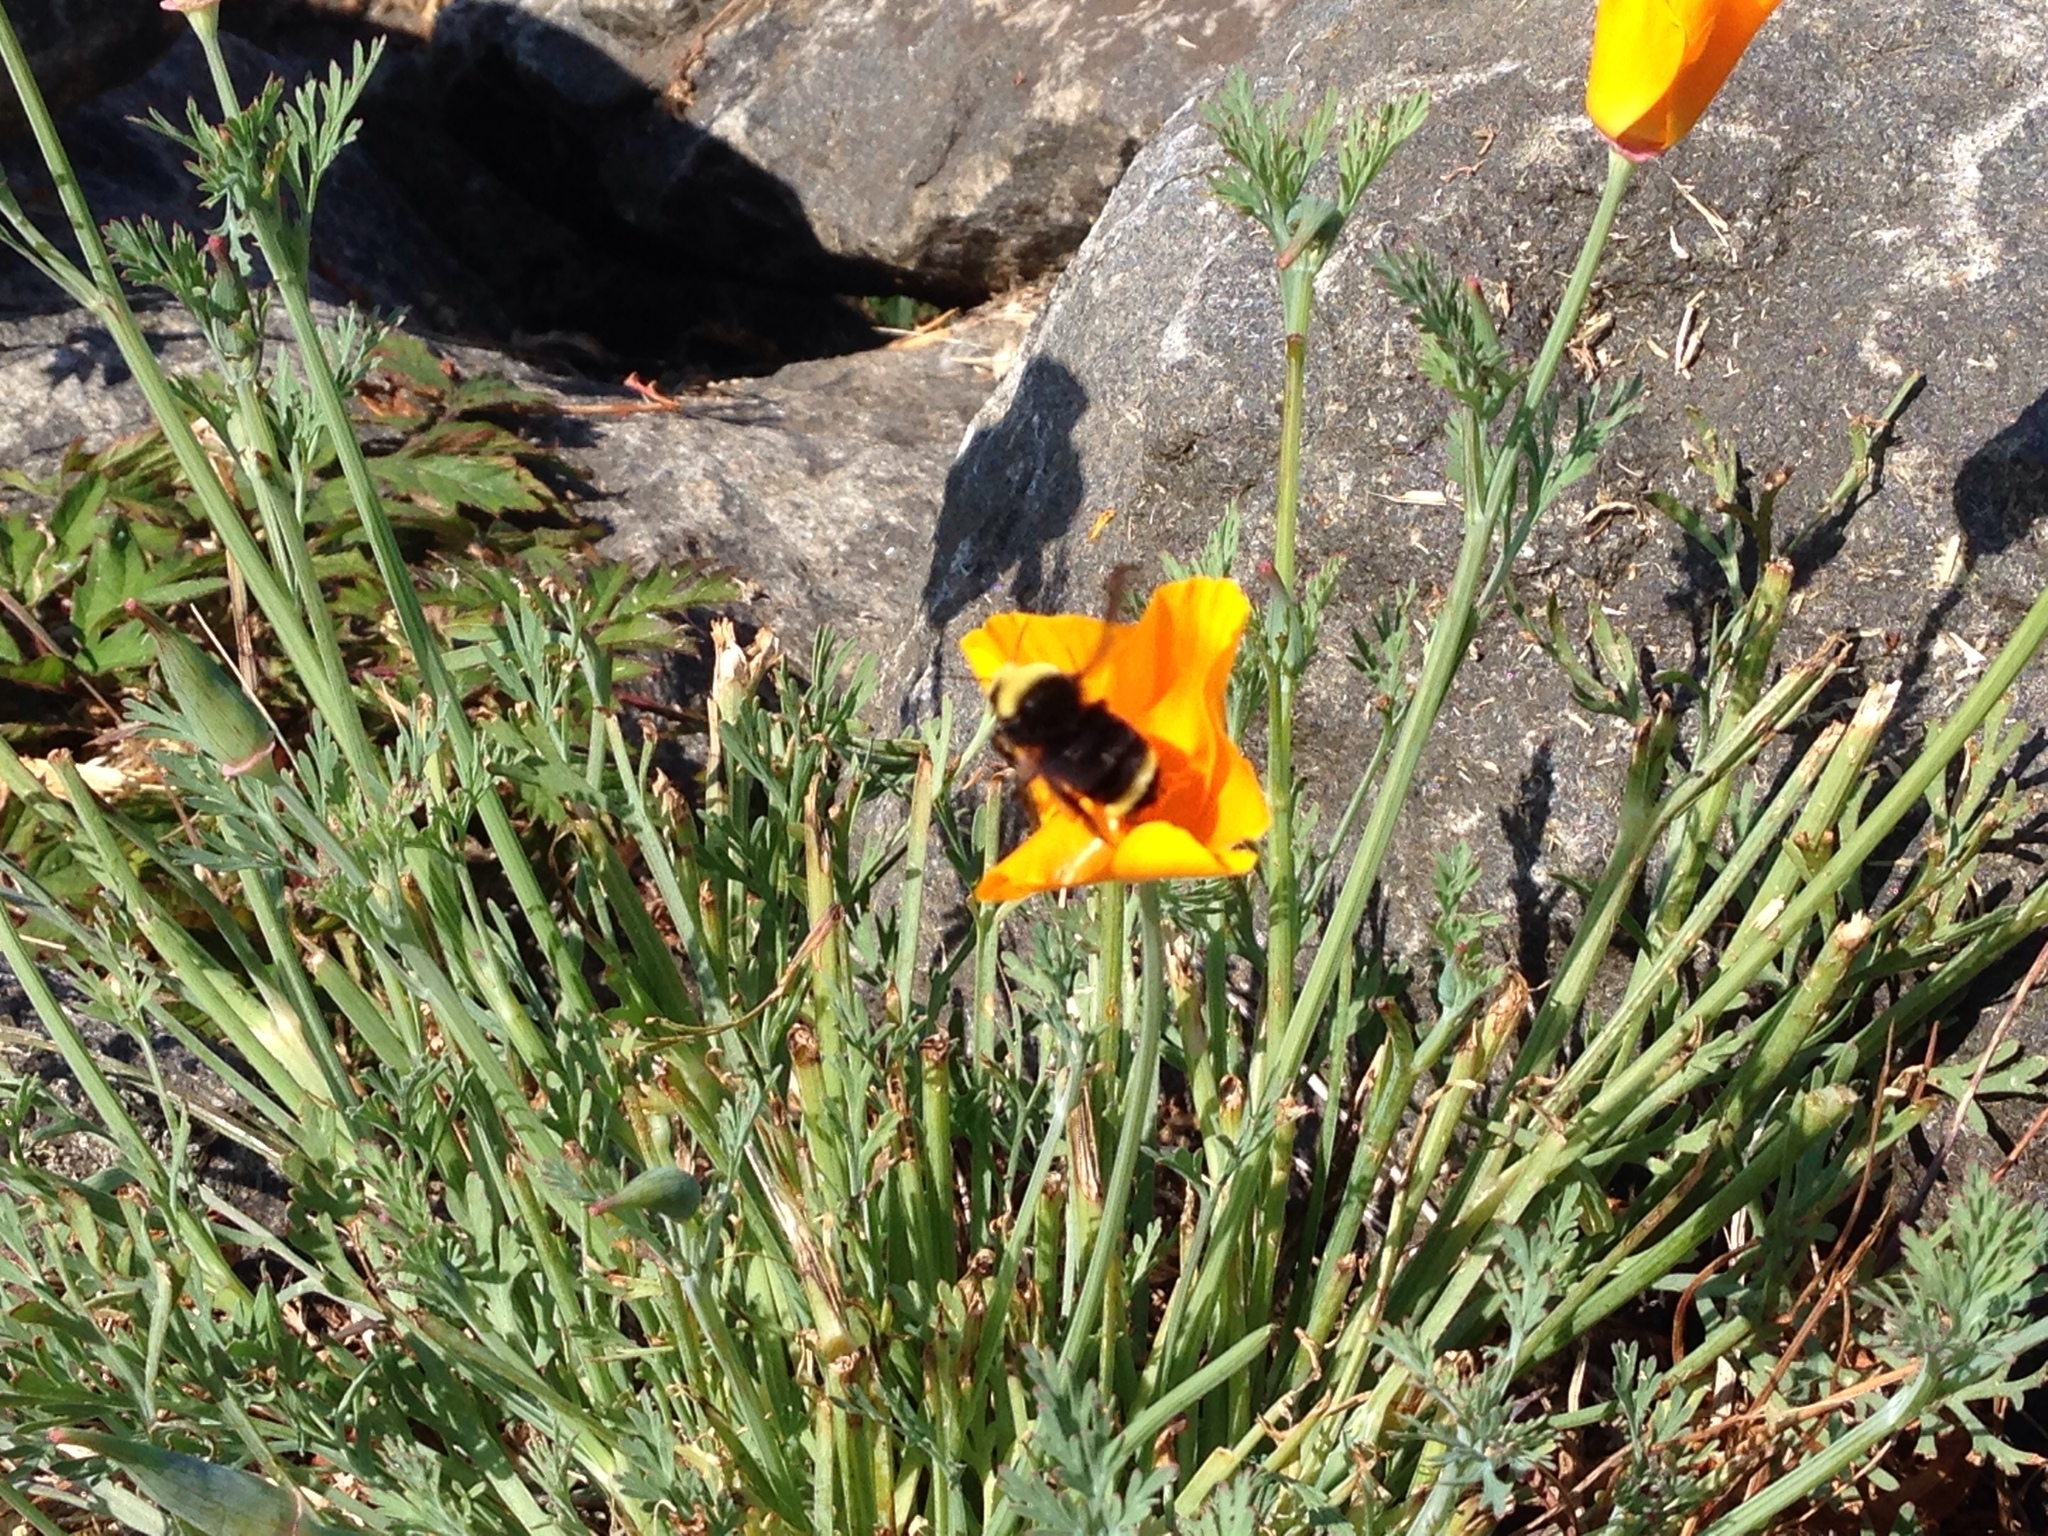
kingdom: Animalia
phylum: Arthropoda
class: Insecta
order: Hymenoptera
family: Apidae
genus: Bombus
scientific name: Bombus vosnesenskii
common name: Vosnesensky bumble bee
